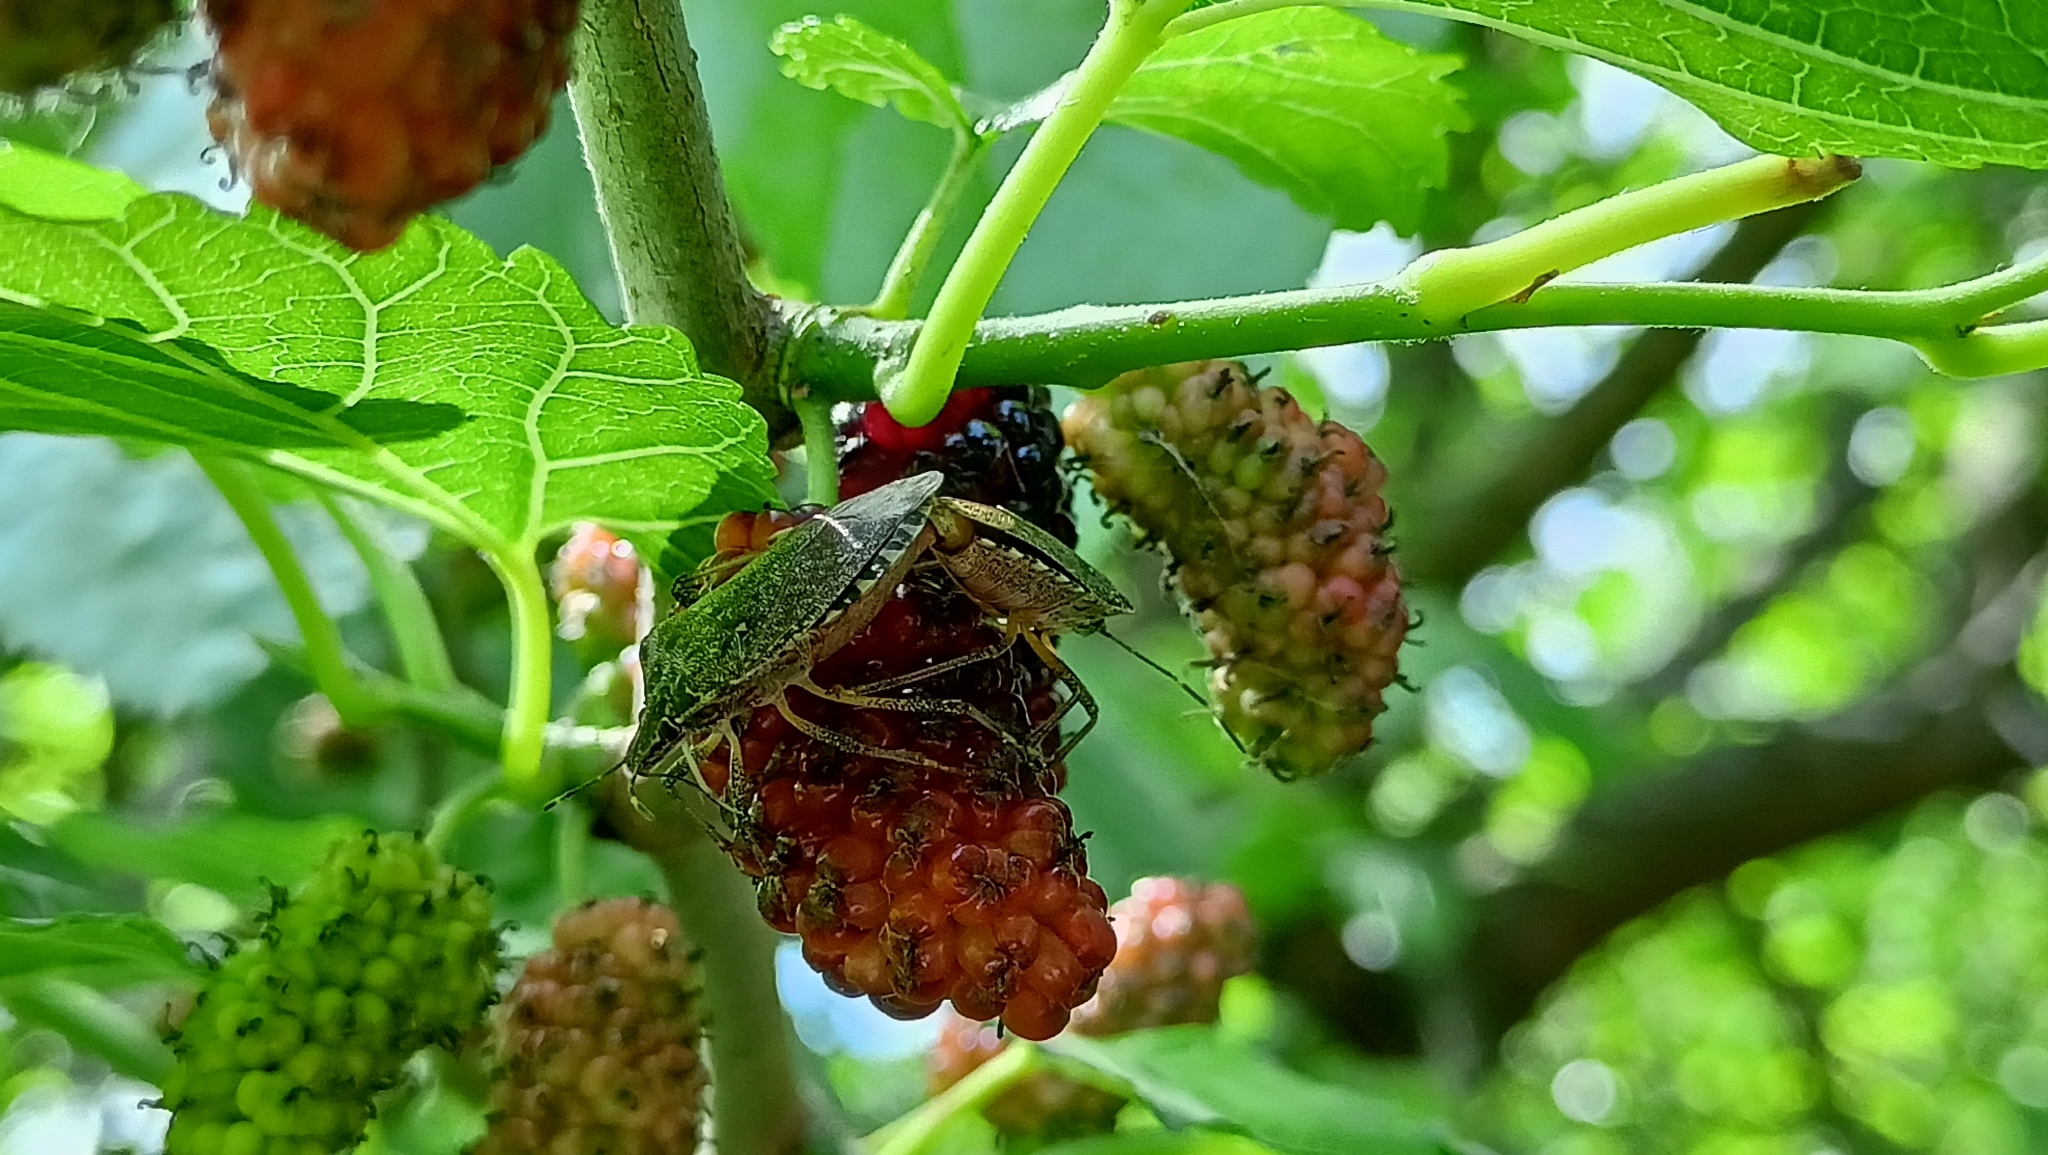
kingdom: Animalia
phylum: Arthropoda
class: Insecta
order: Hemiptera
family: Pentatomidae
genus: Halyomorpha
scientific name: Halyomorpha halys
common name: Brown marmorated stink bug
